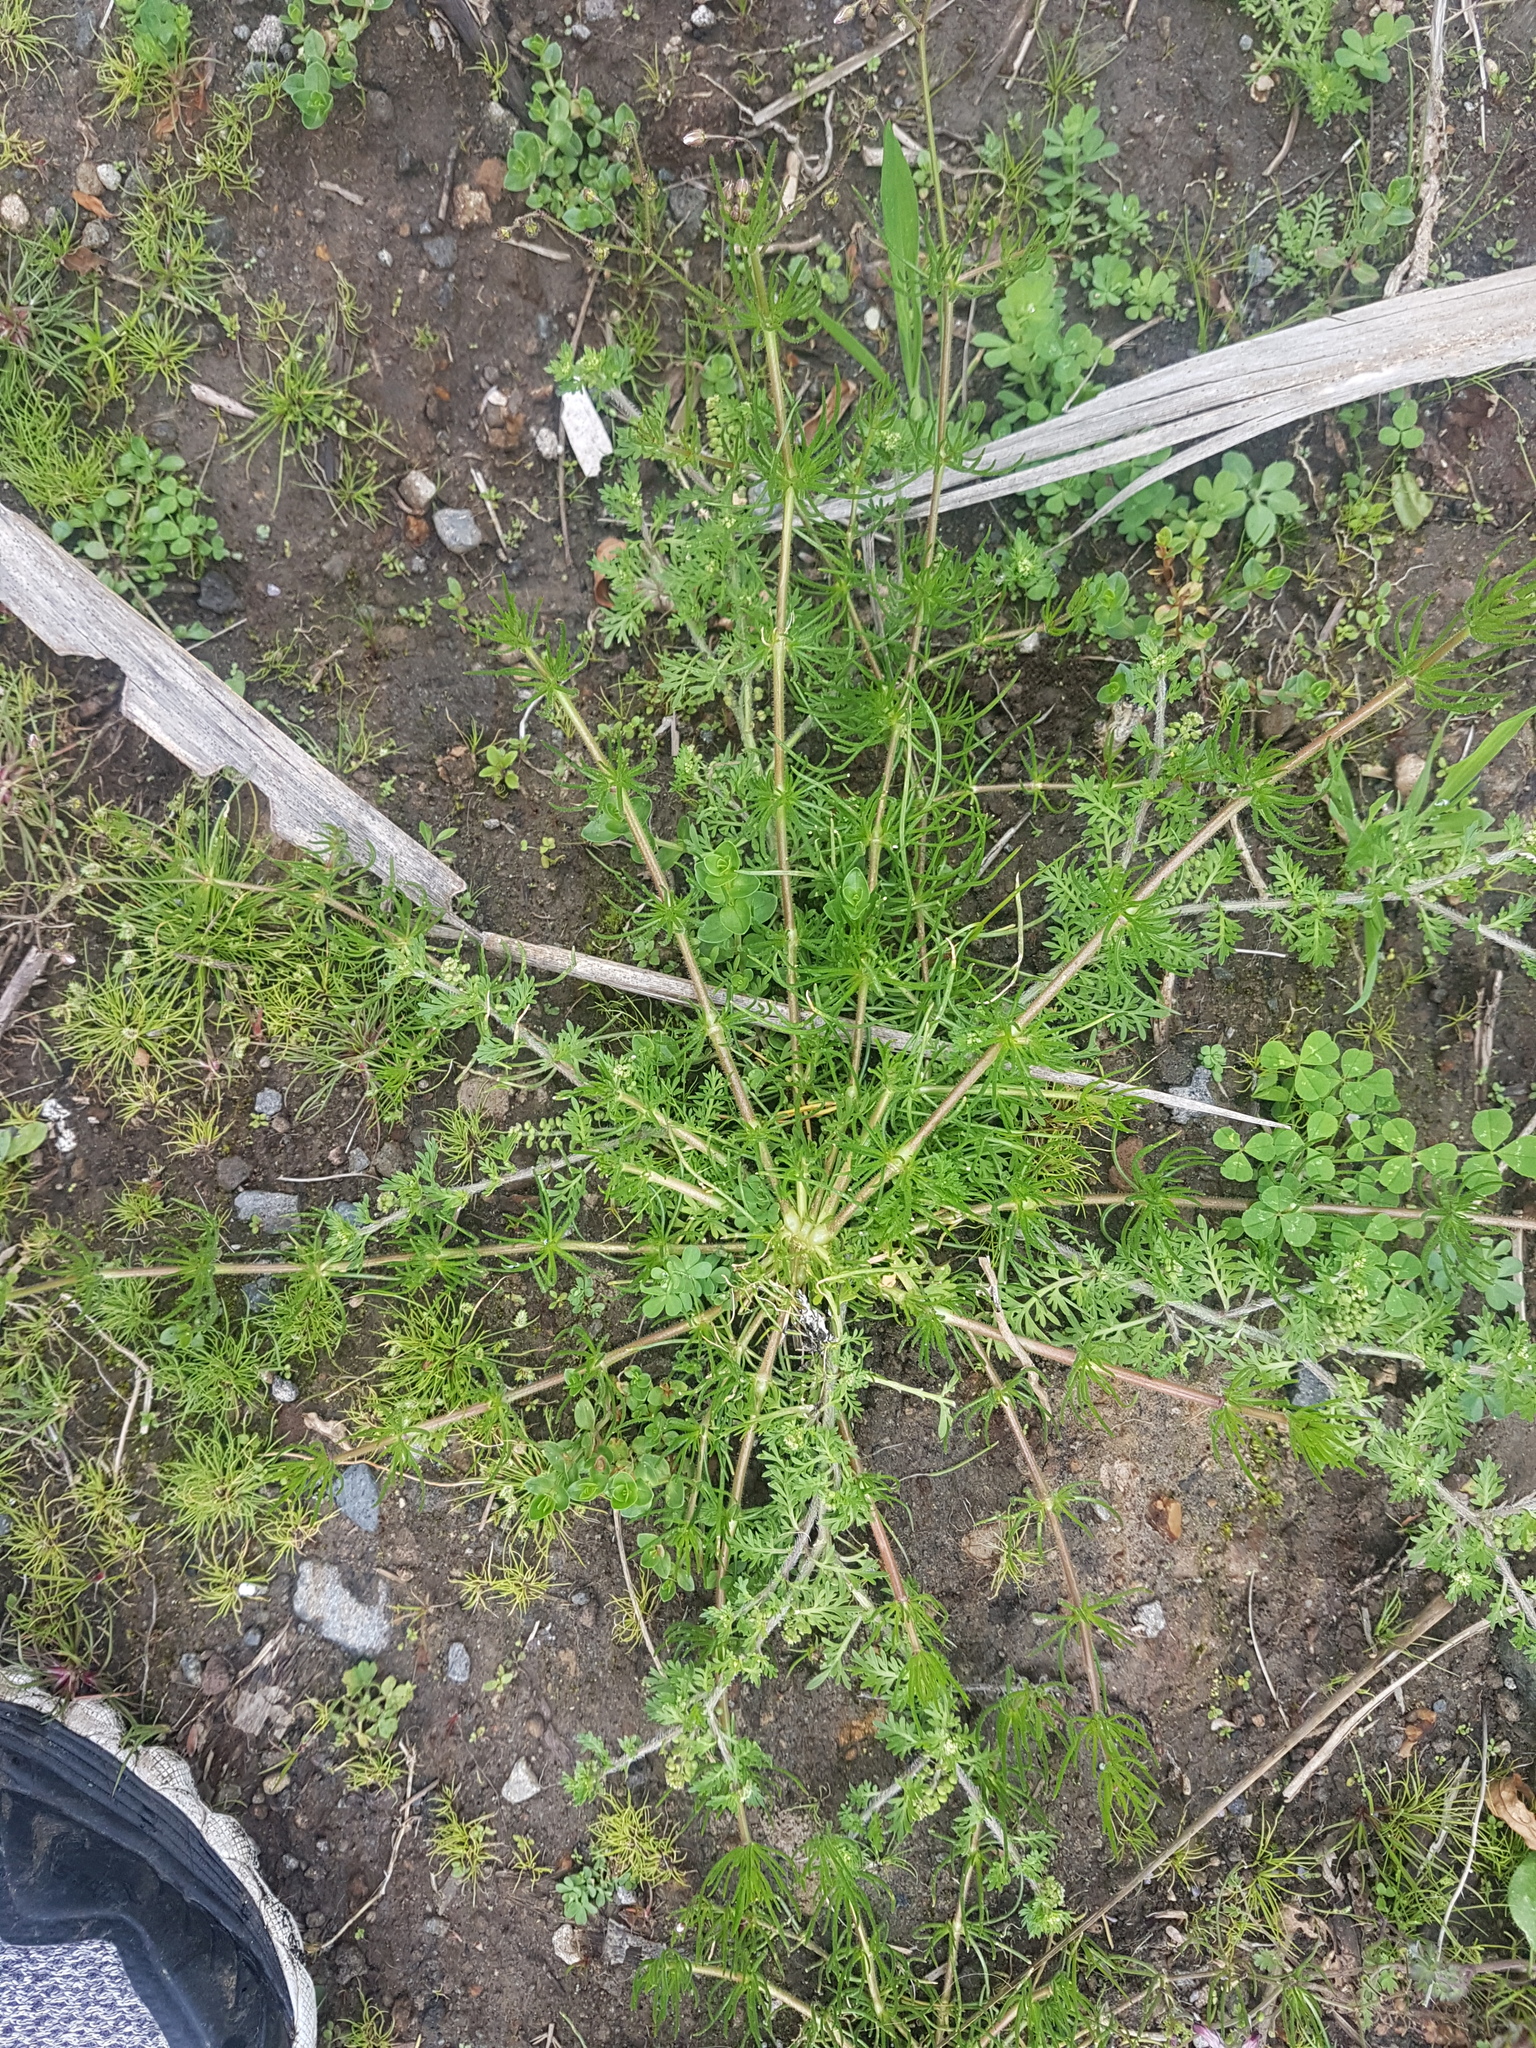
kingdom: Plantae
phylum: Tracheophyta
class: Magnoliopsida
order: Caryophyllales
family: Caryophyllaceae
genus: Spergula
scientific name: Spergula arvensis
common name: Corn spurrey
